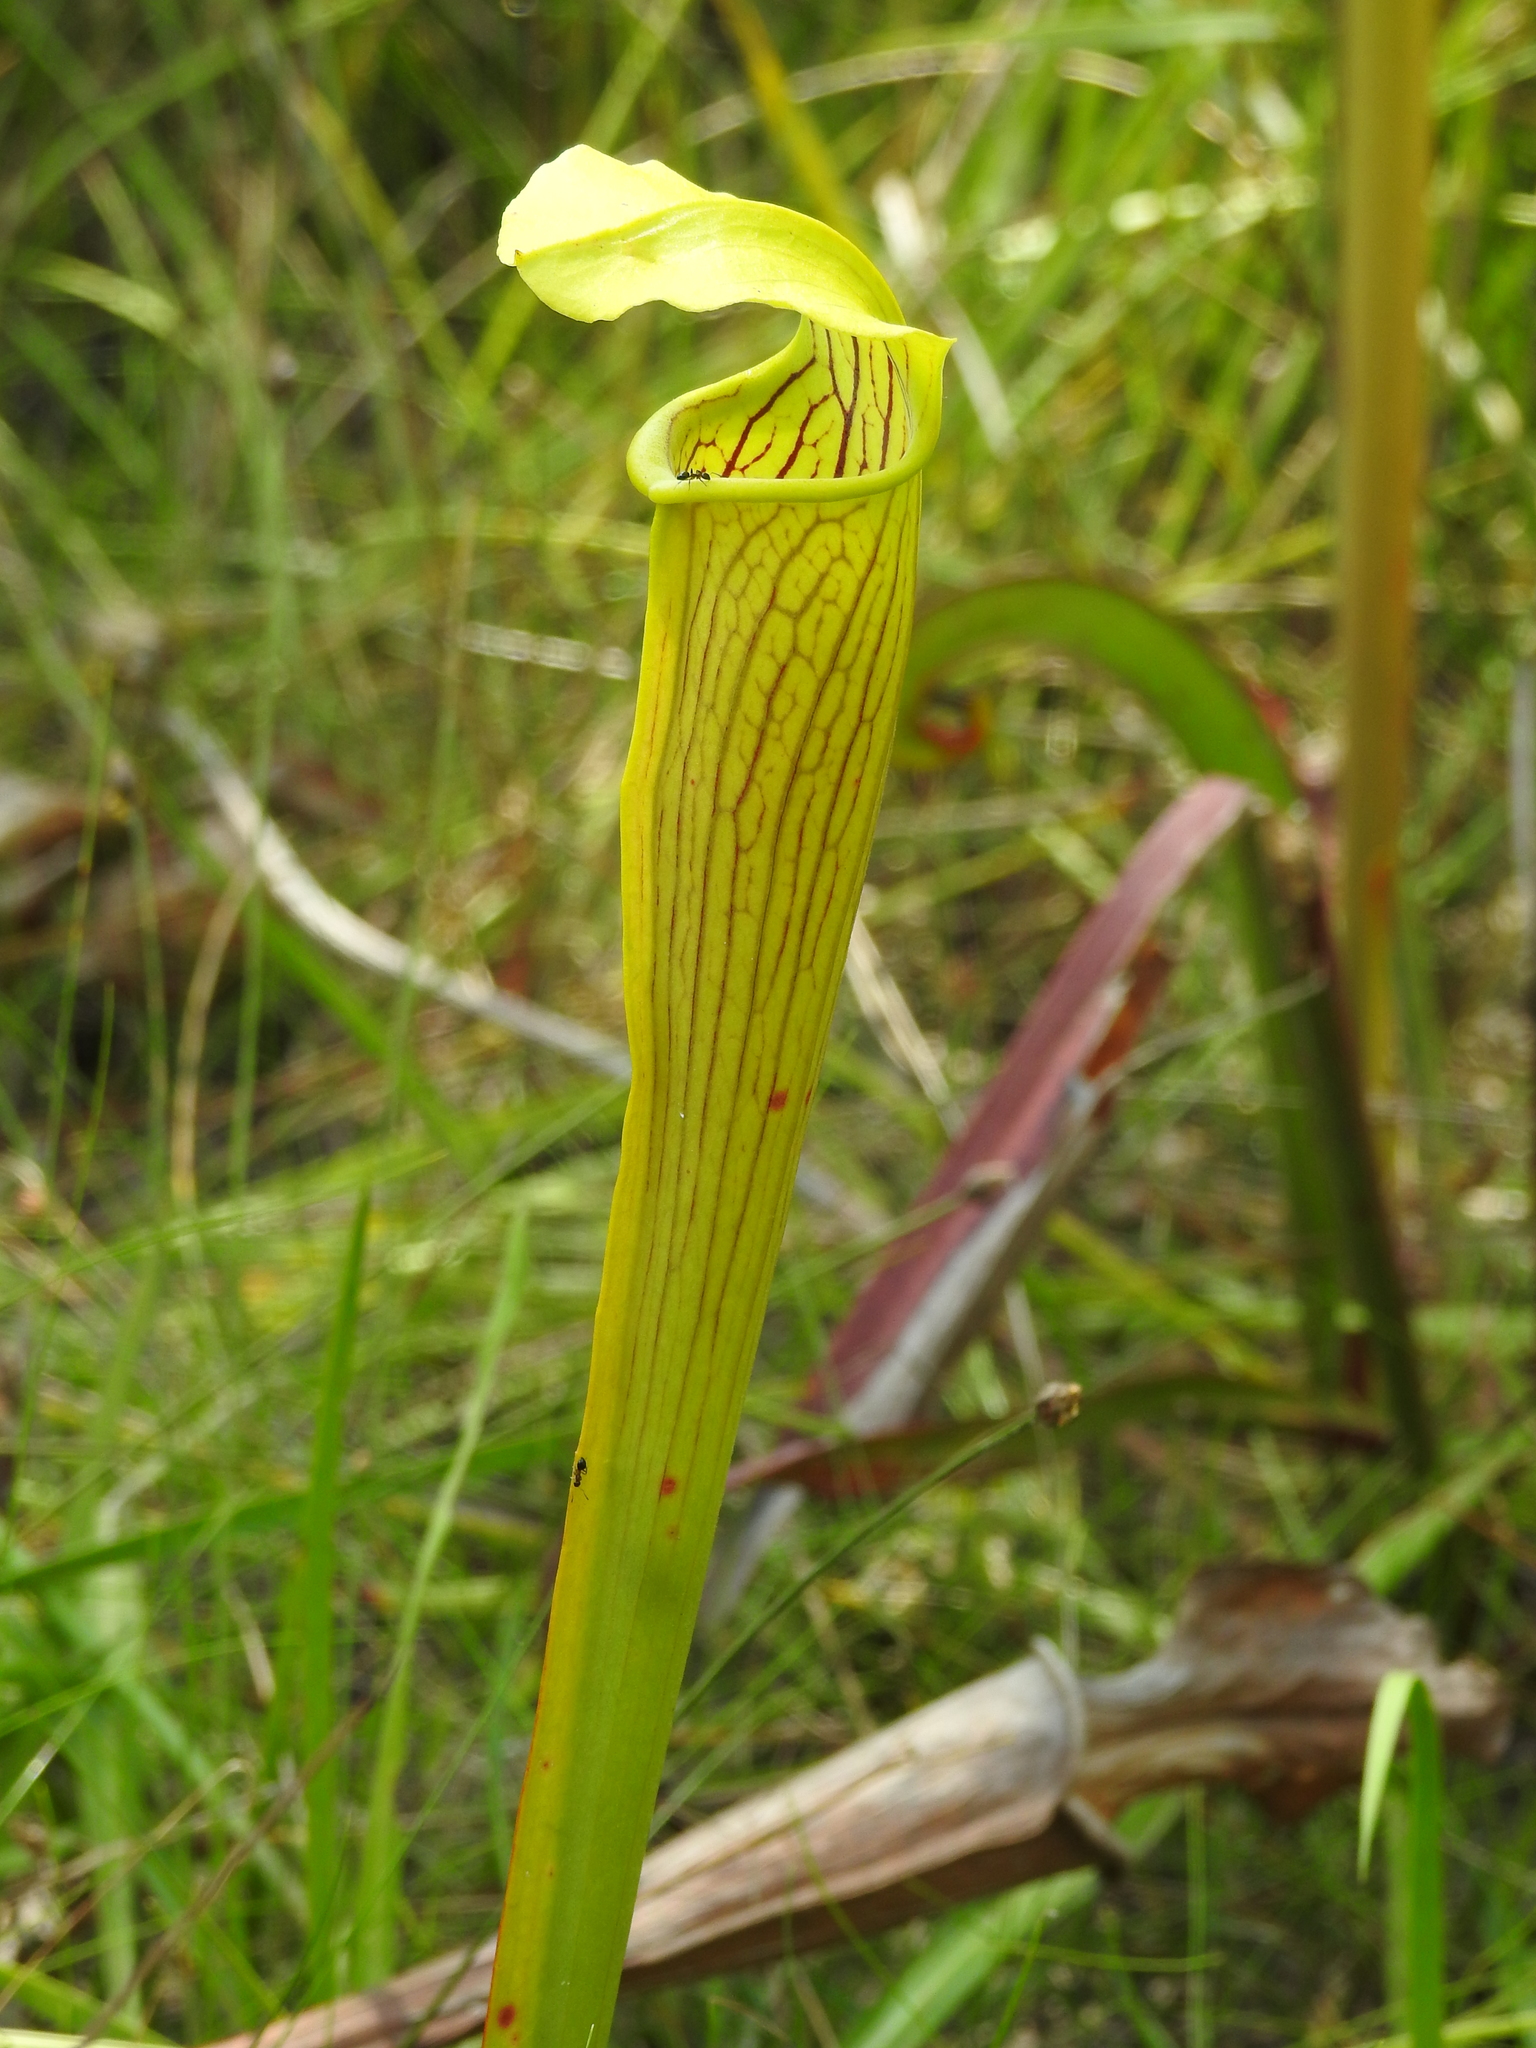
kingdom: Plantae
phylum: Tracheophyta
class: Magnoliopsida
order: Ericales
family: Sarraceniaceae
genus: Sarracenia
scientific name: Sarracenia alata
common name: Yellow trumpets
